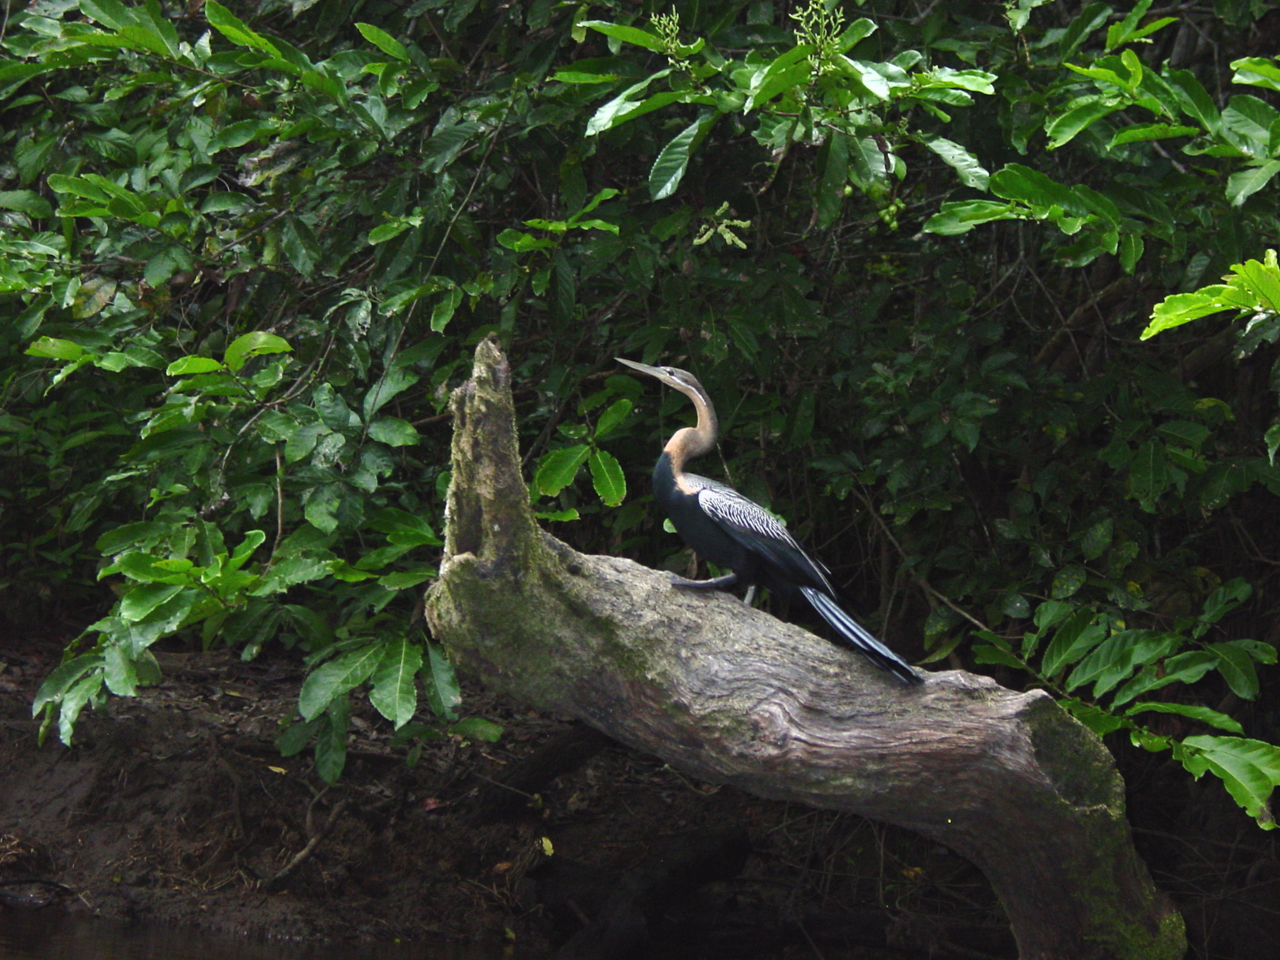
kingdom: Animalia
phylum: Chordata
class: Aves
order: Suliformes
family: Anhingidae
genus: Anhinga
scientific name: Anhinga rufa
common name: African darter
